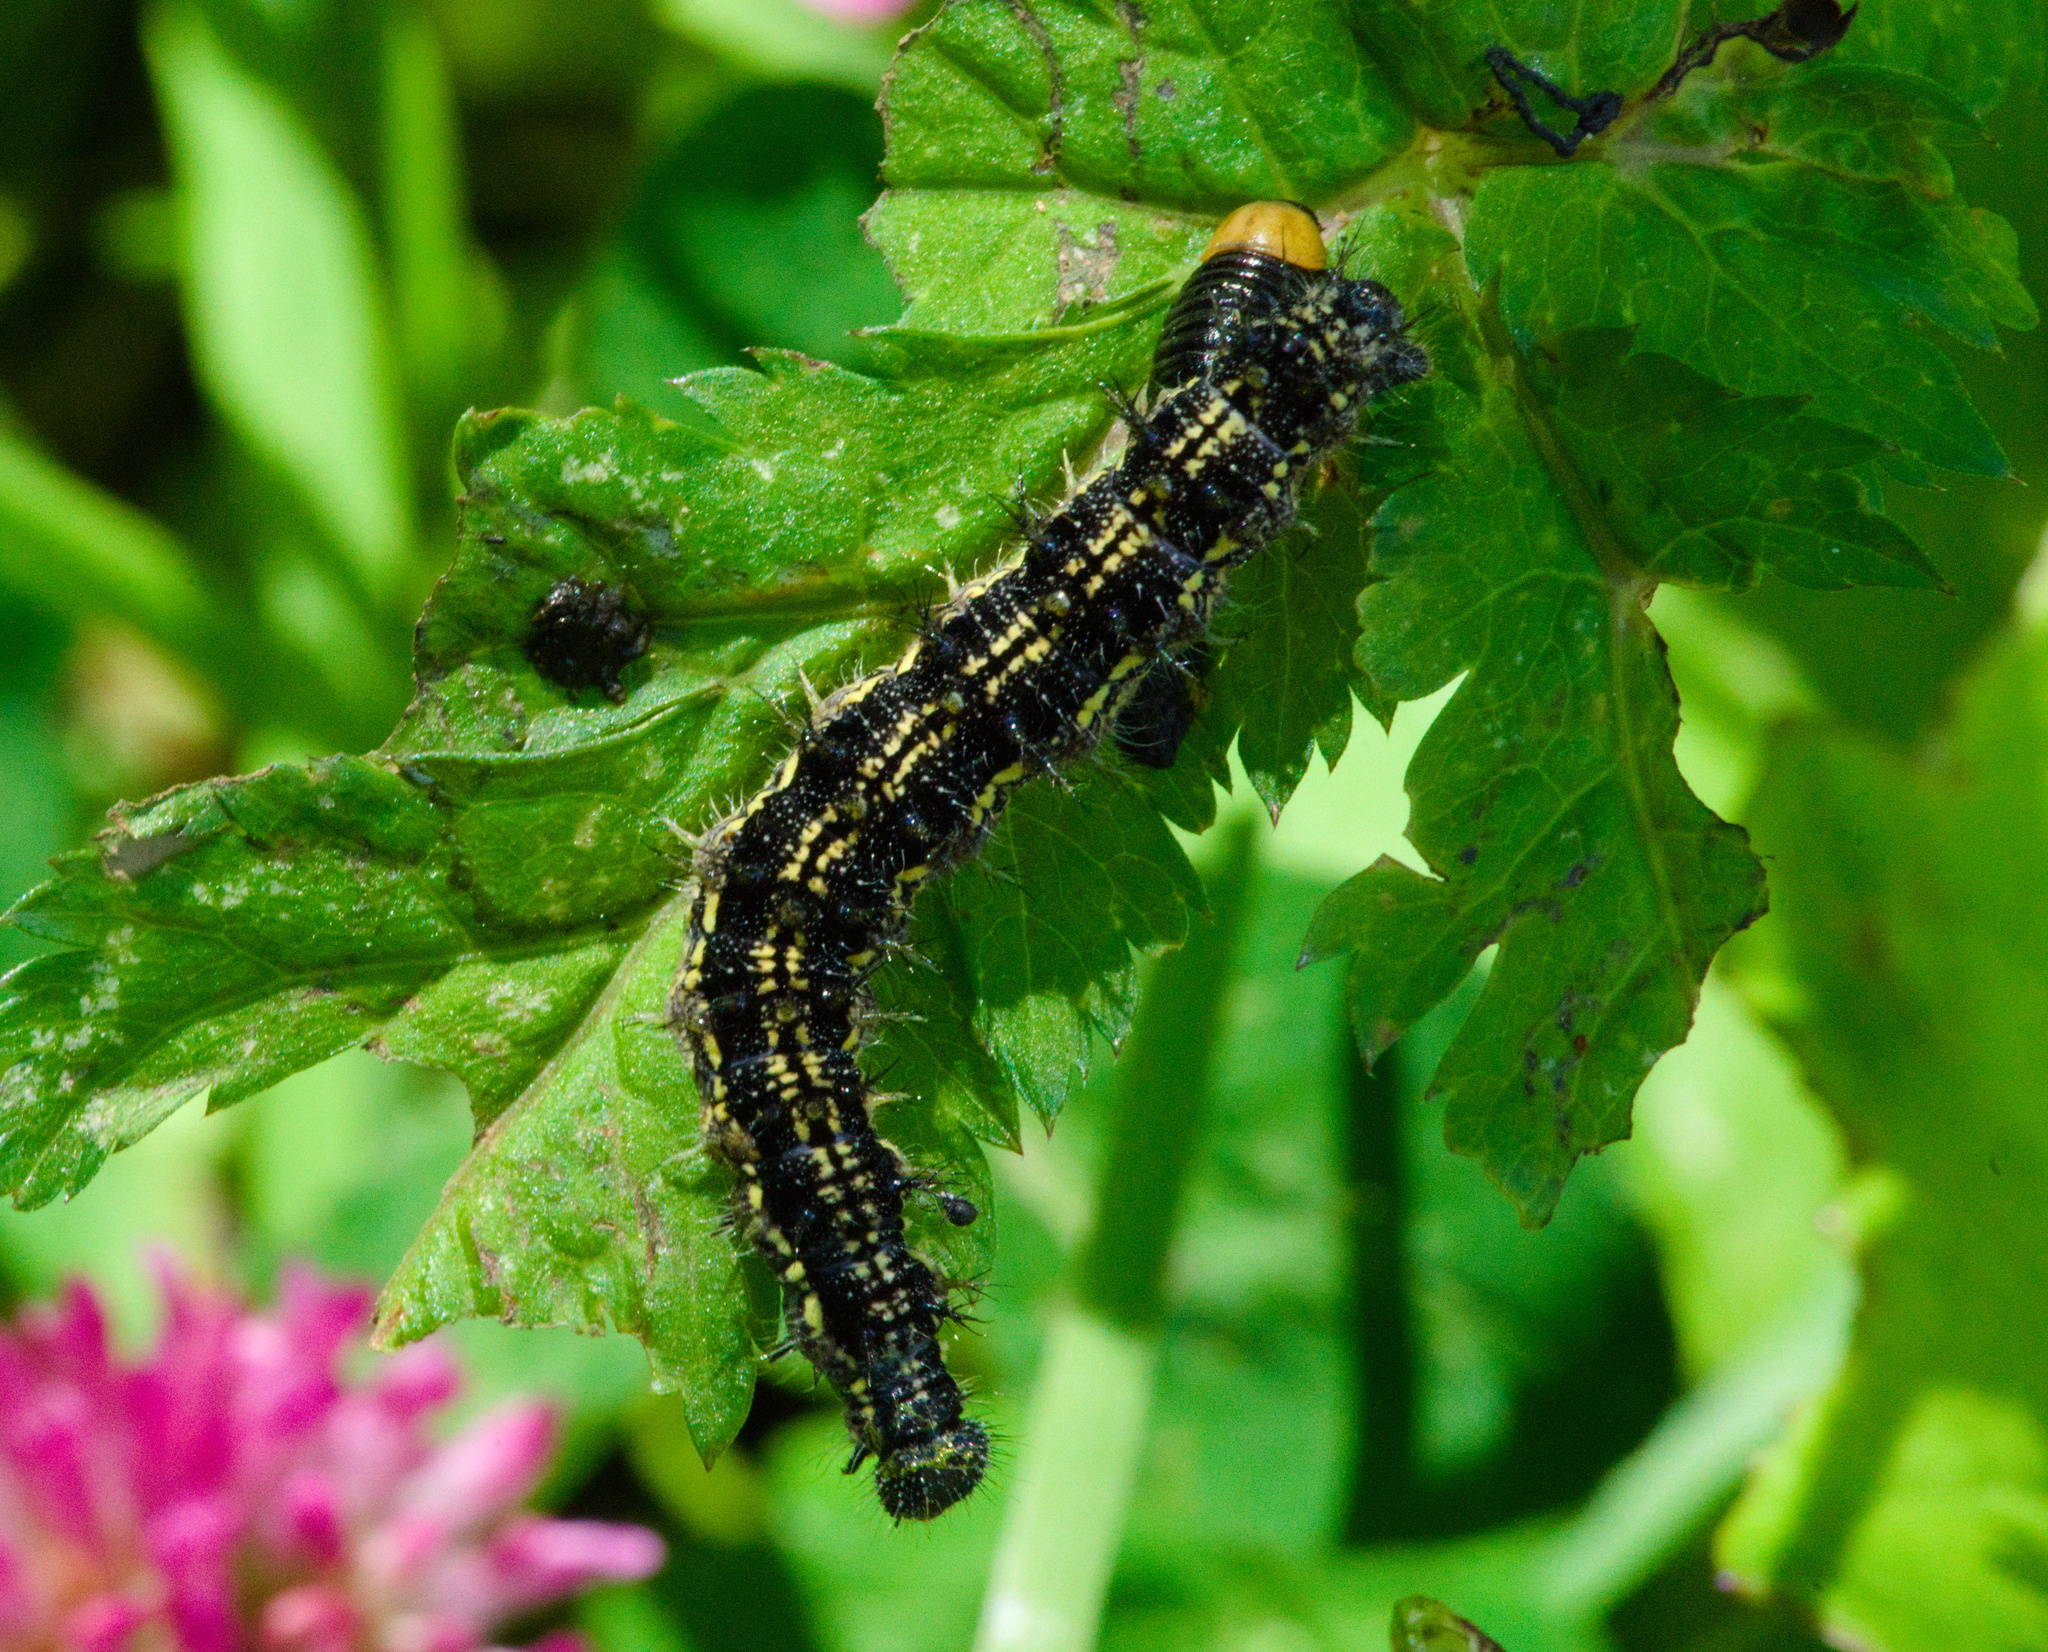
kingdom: Animalia
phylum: Arthropoda
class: Insecta
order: Lepidoptera
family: Nymphalidae
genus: Aglais
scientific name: Aglais urticae
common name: Small tortoiseshell
